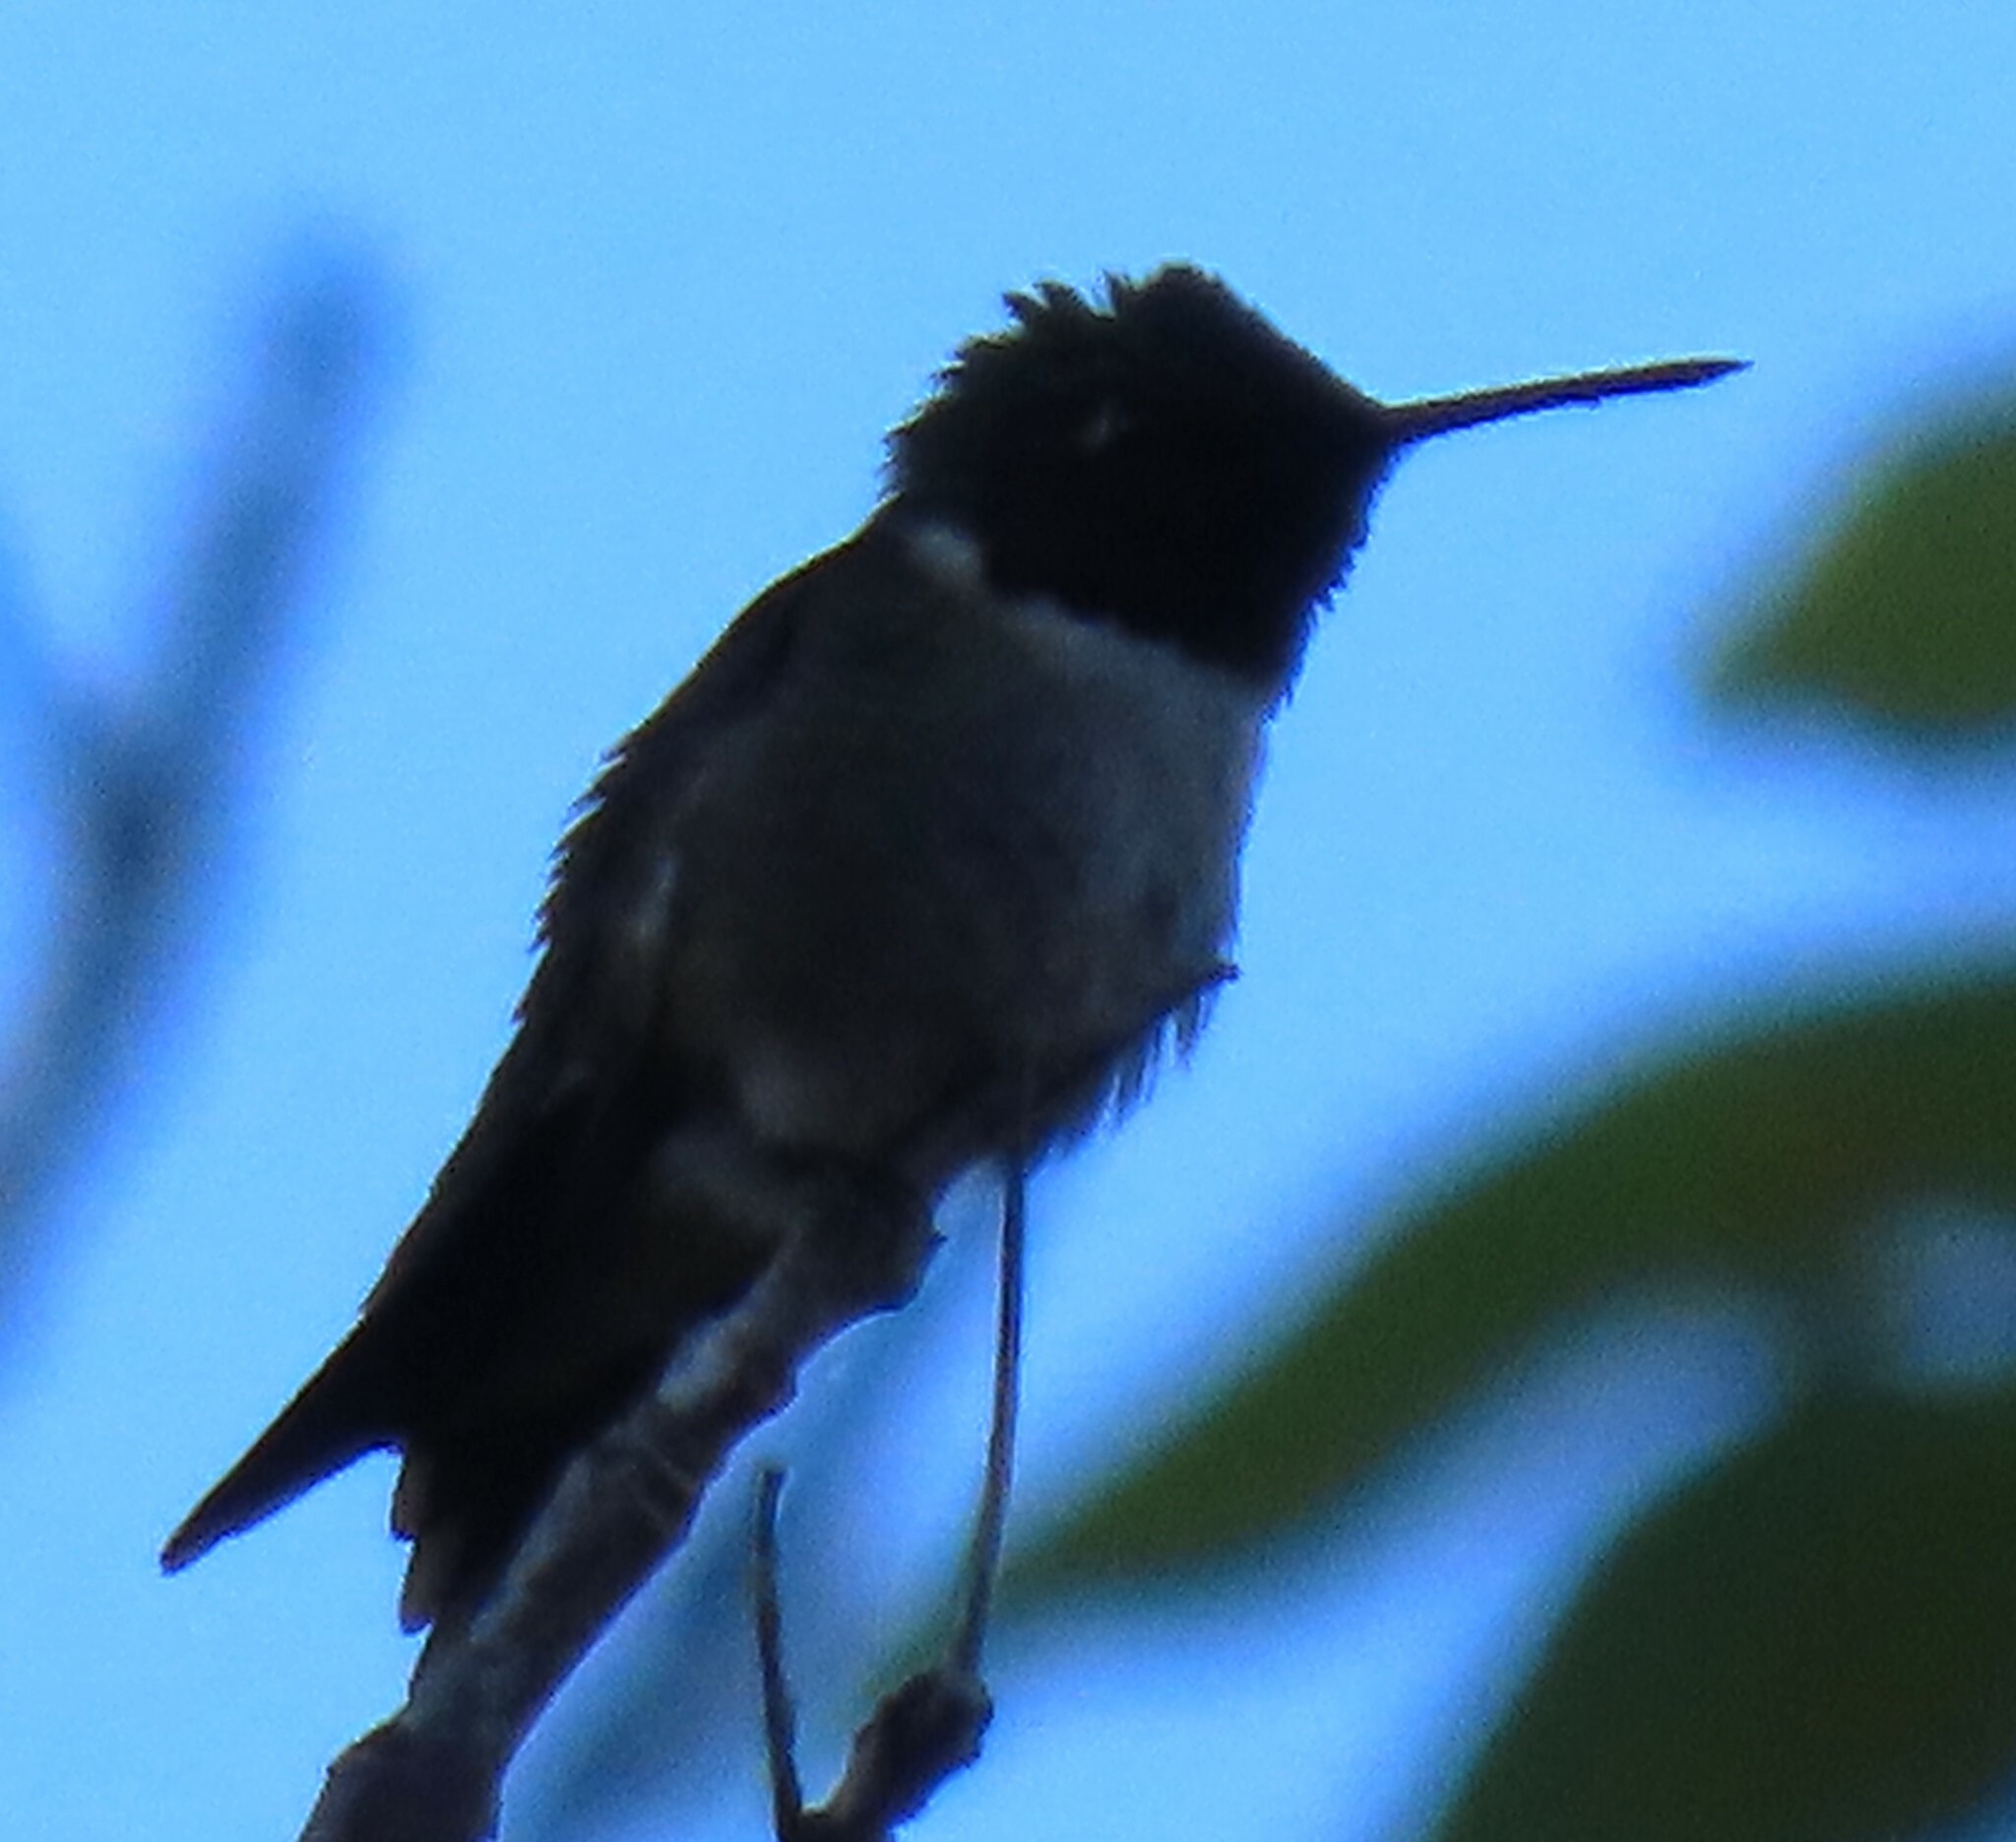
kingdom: Animalia
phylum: Chordata
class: Aves
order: Apodiformes
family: Trochilidae
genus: Archilochus
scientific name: Archilochus colubris
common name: Ruby-throated hummingbird
